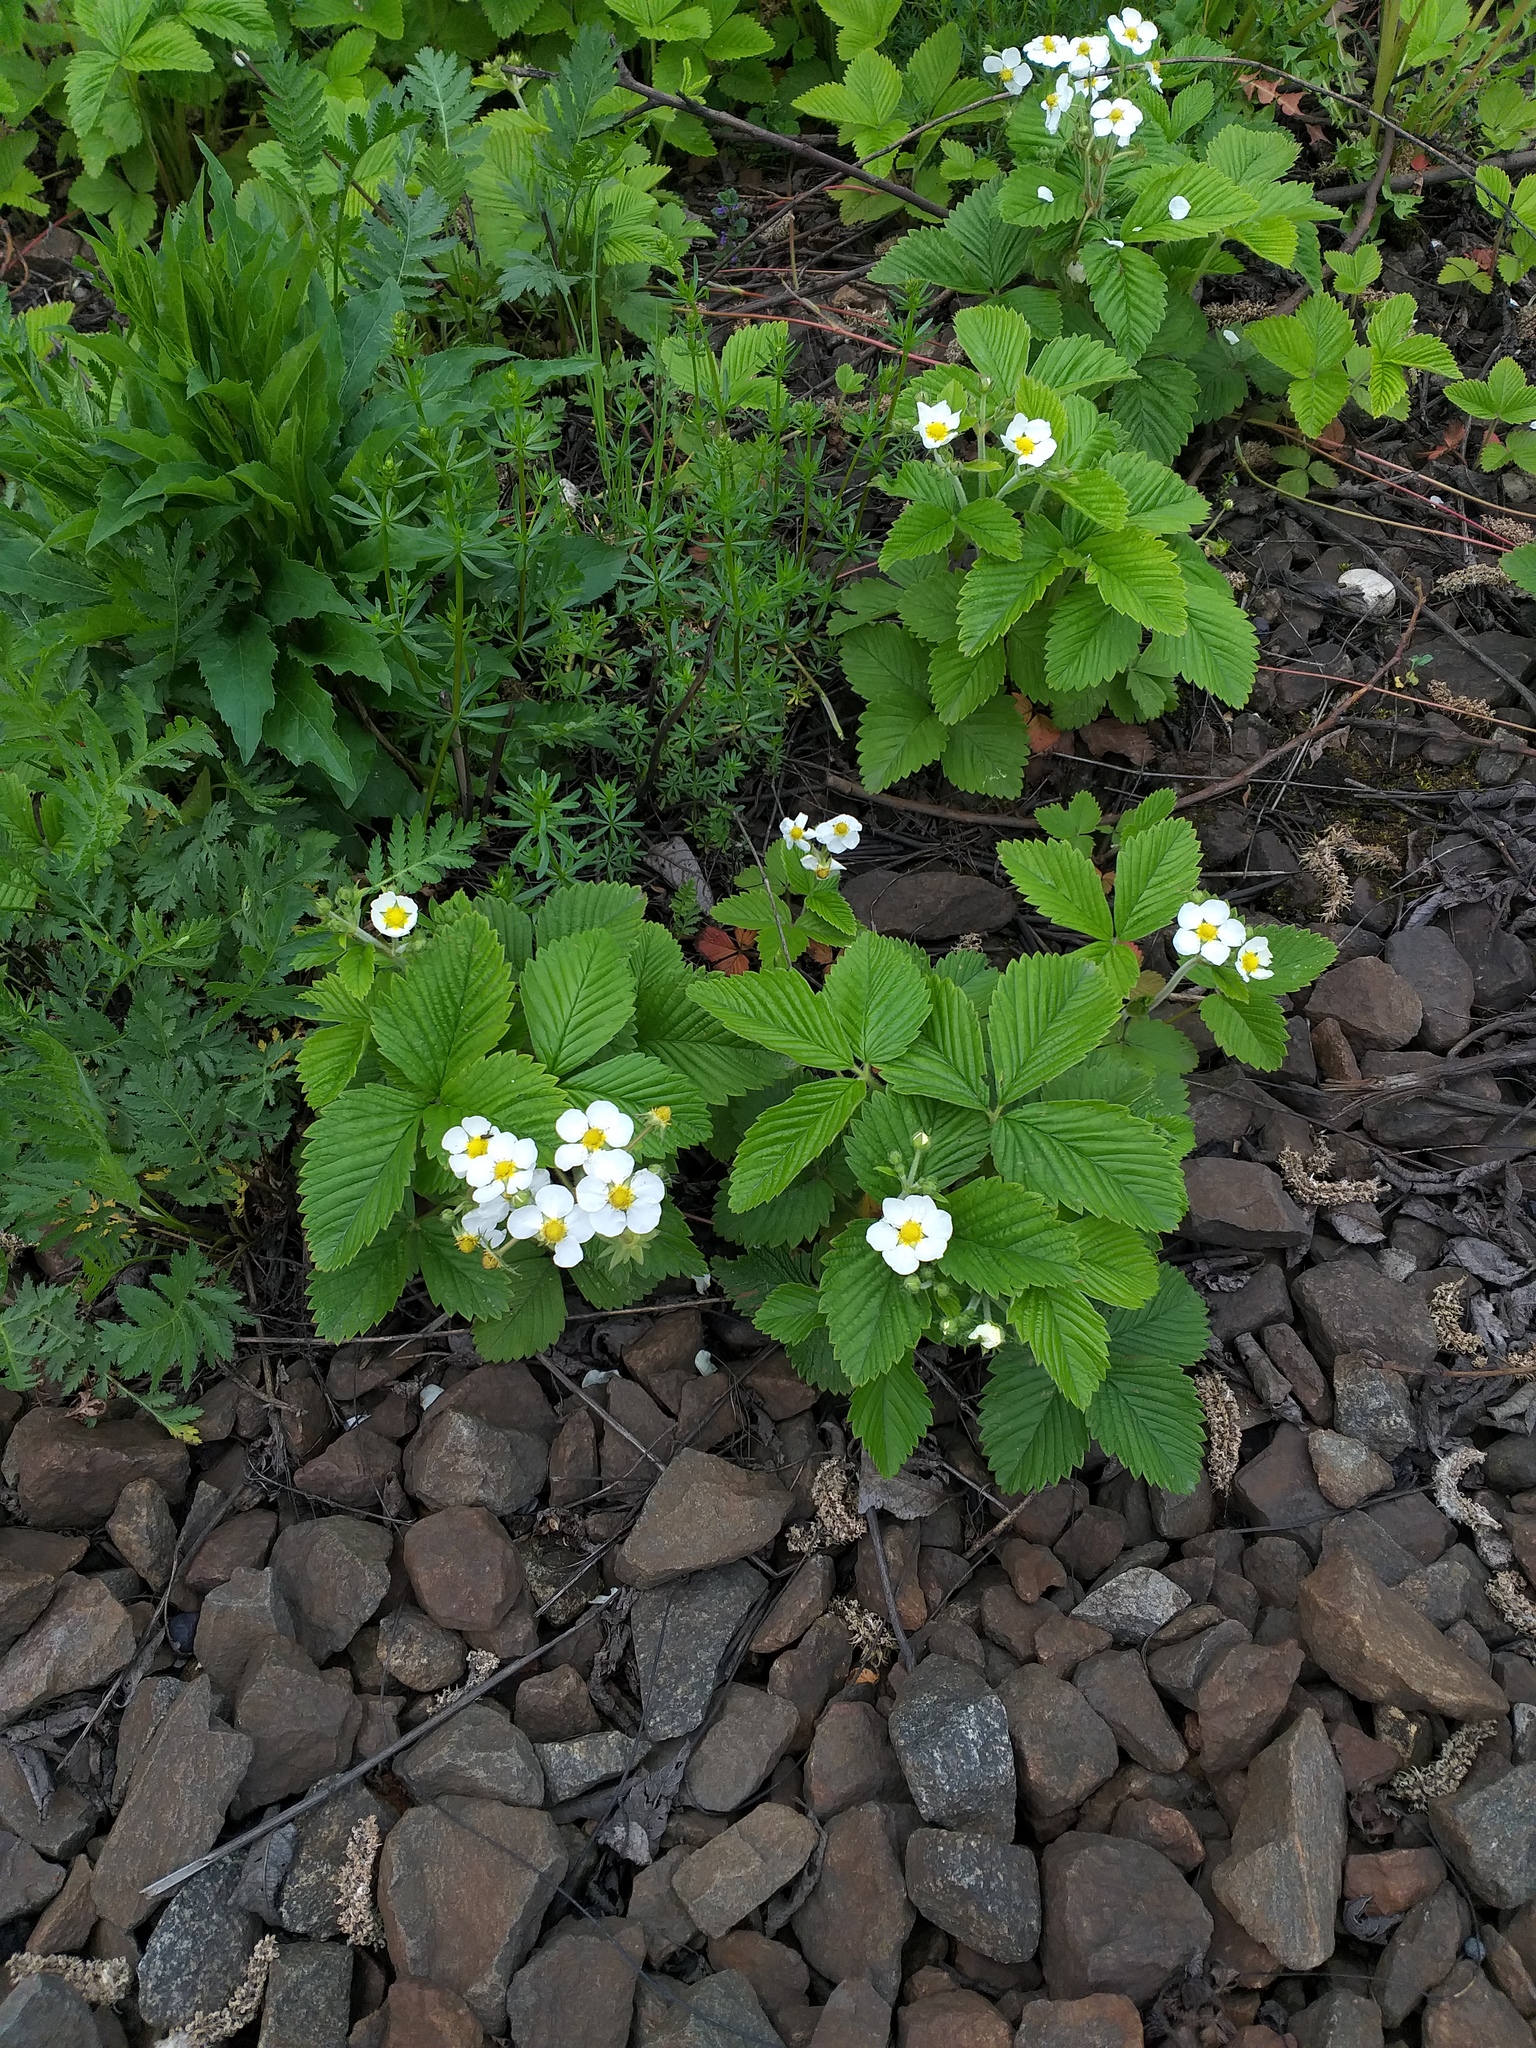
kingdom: Plantae
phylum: Tracheophyta
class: Magnoliopsida
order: Rosales
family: Rosaceae
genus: Fragaria
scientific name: Fragaria moschata
